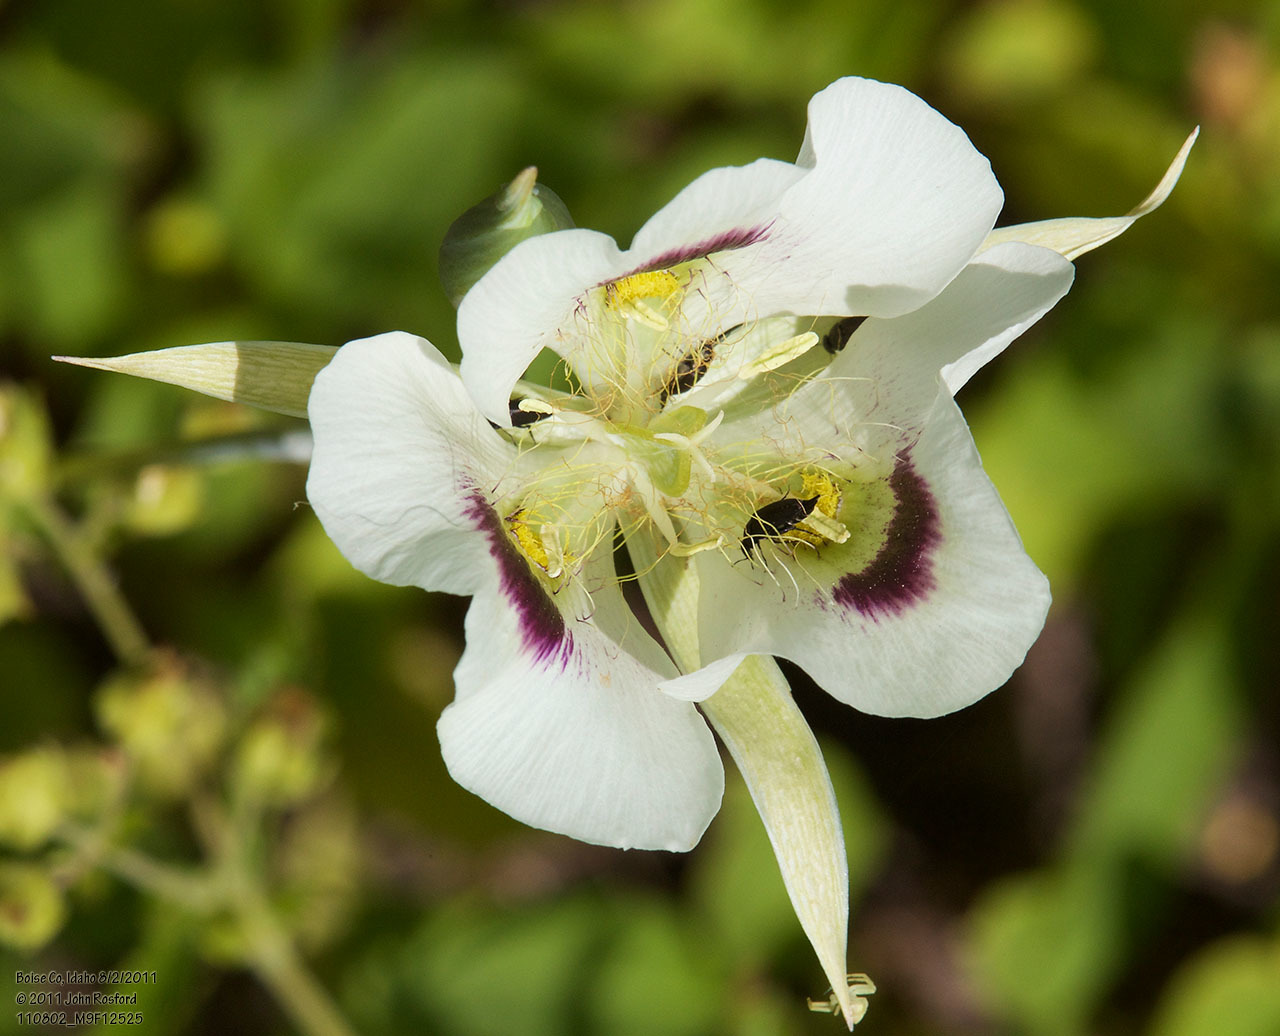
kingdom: Plantae
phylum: Tracheophyta
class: Liliopsida
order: Liliales
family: Liliaceae
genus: Calochortus
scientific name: Calochortus eurycarpus
